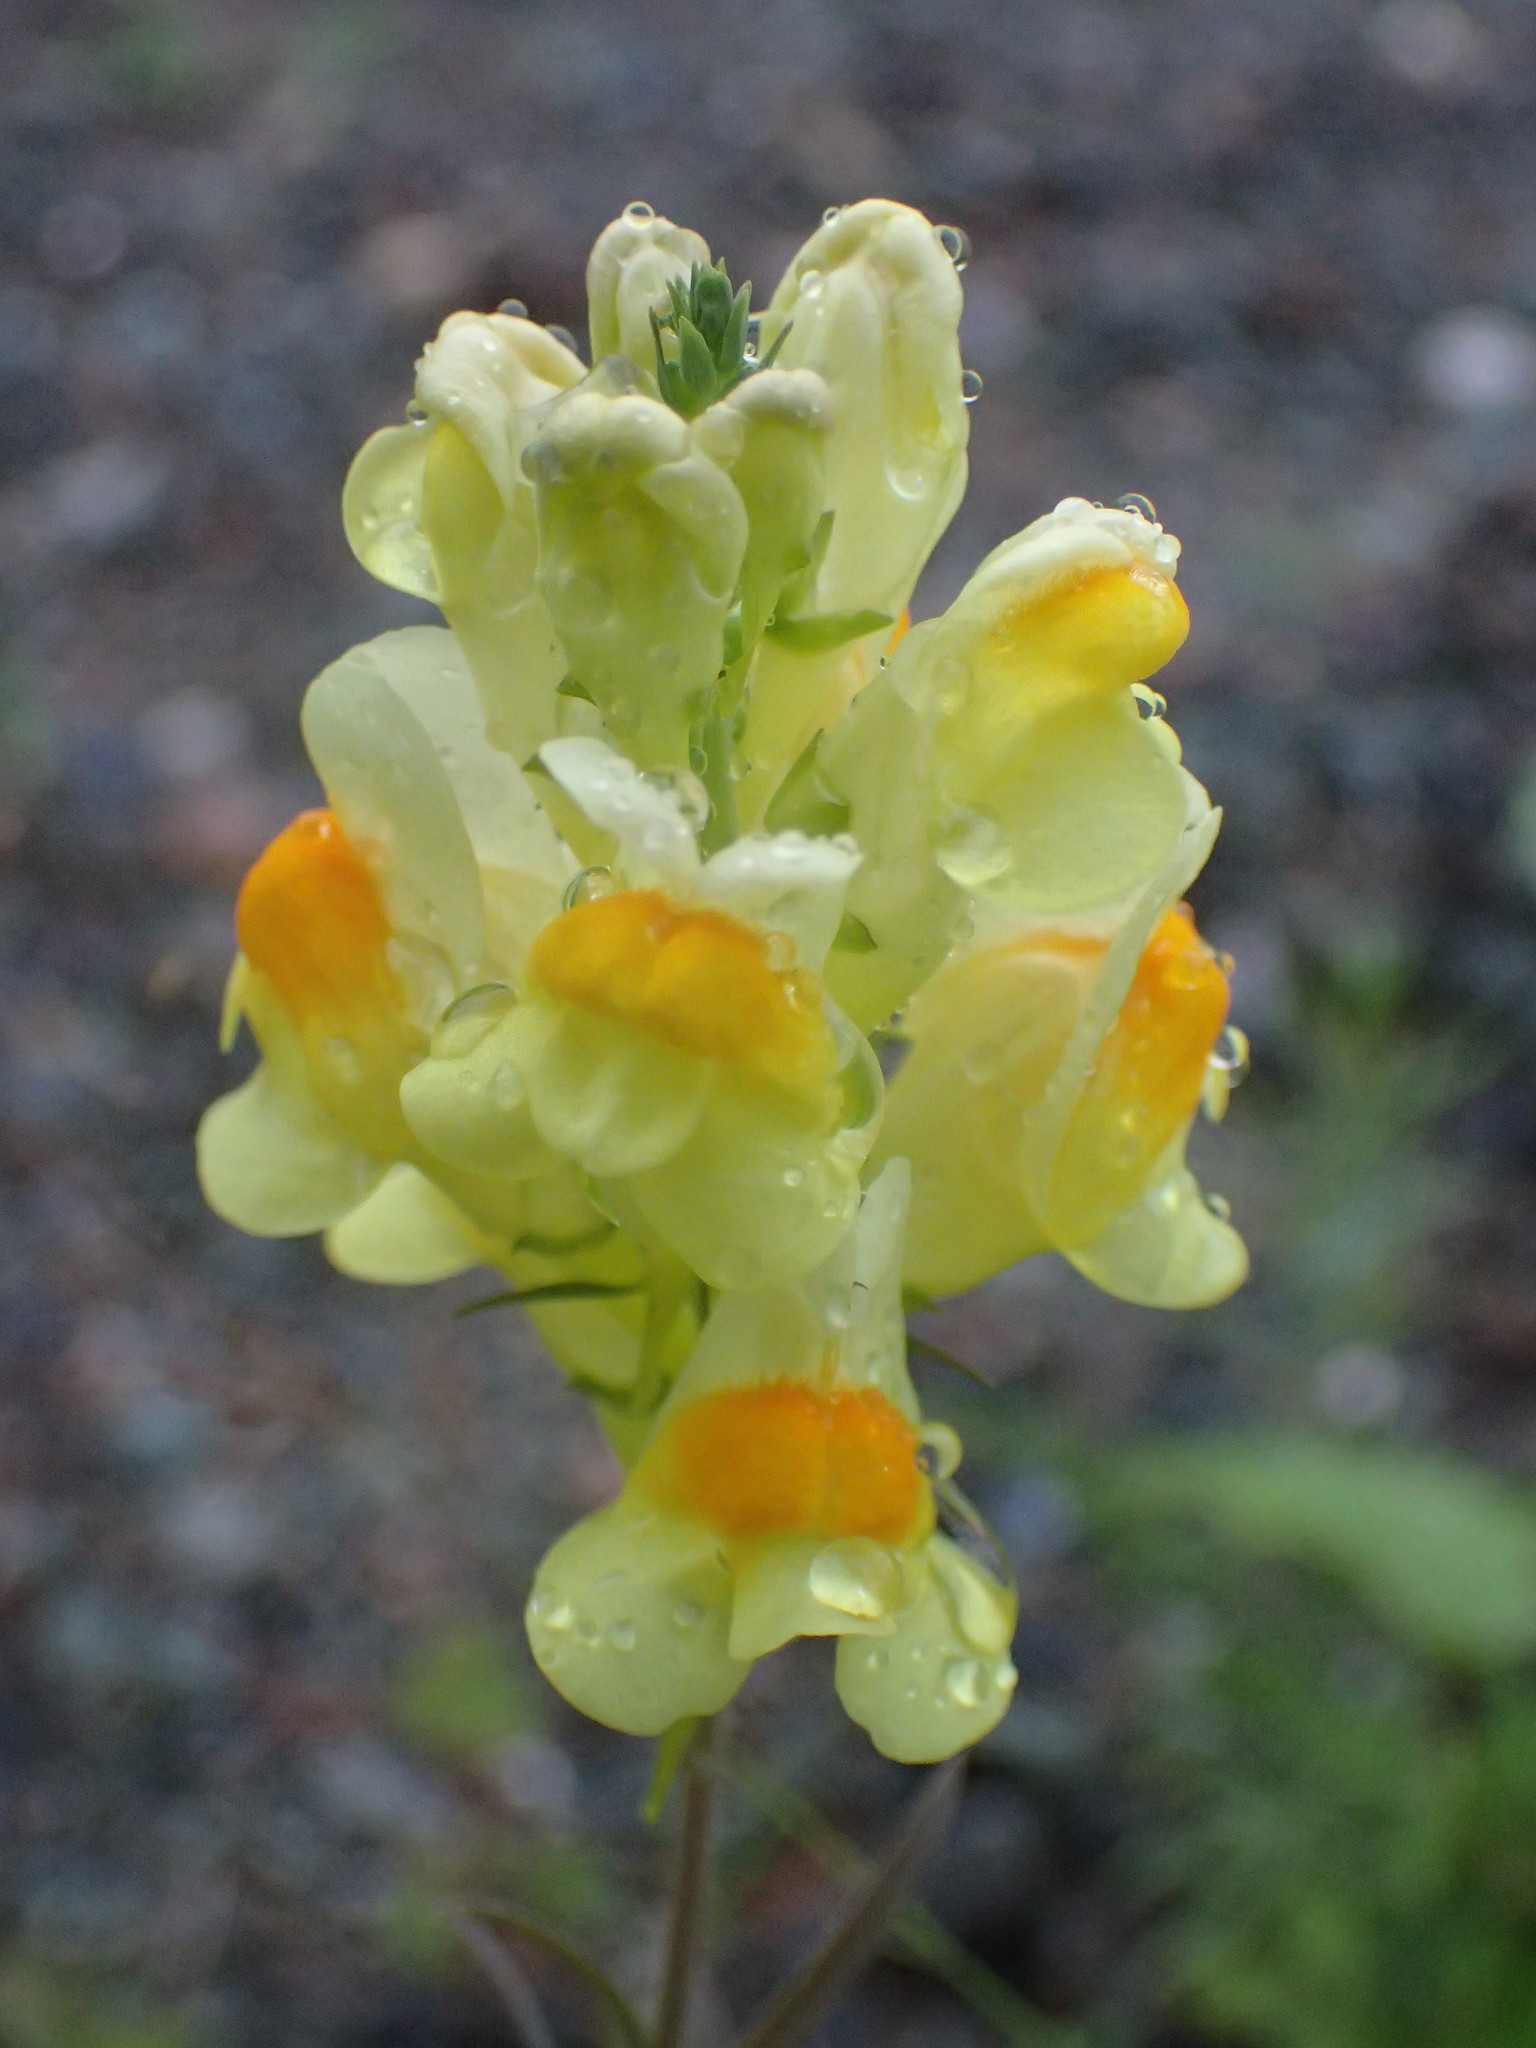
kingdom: Plantae
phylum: Tracheophyta
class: Magnoliopsida
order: Lamiales
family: Plantaginaceae
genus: Linaria
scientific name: Linaria vulgaris
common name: Butter and eggs
